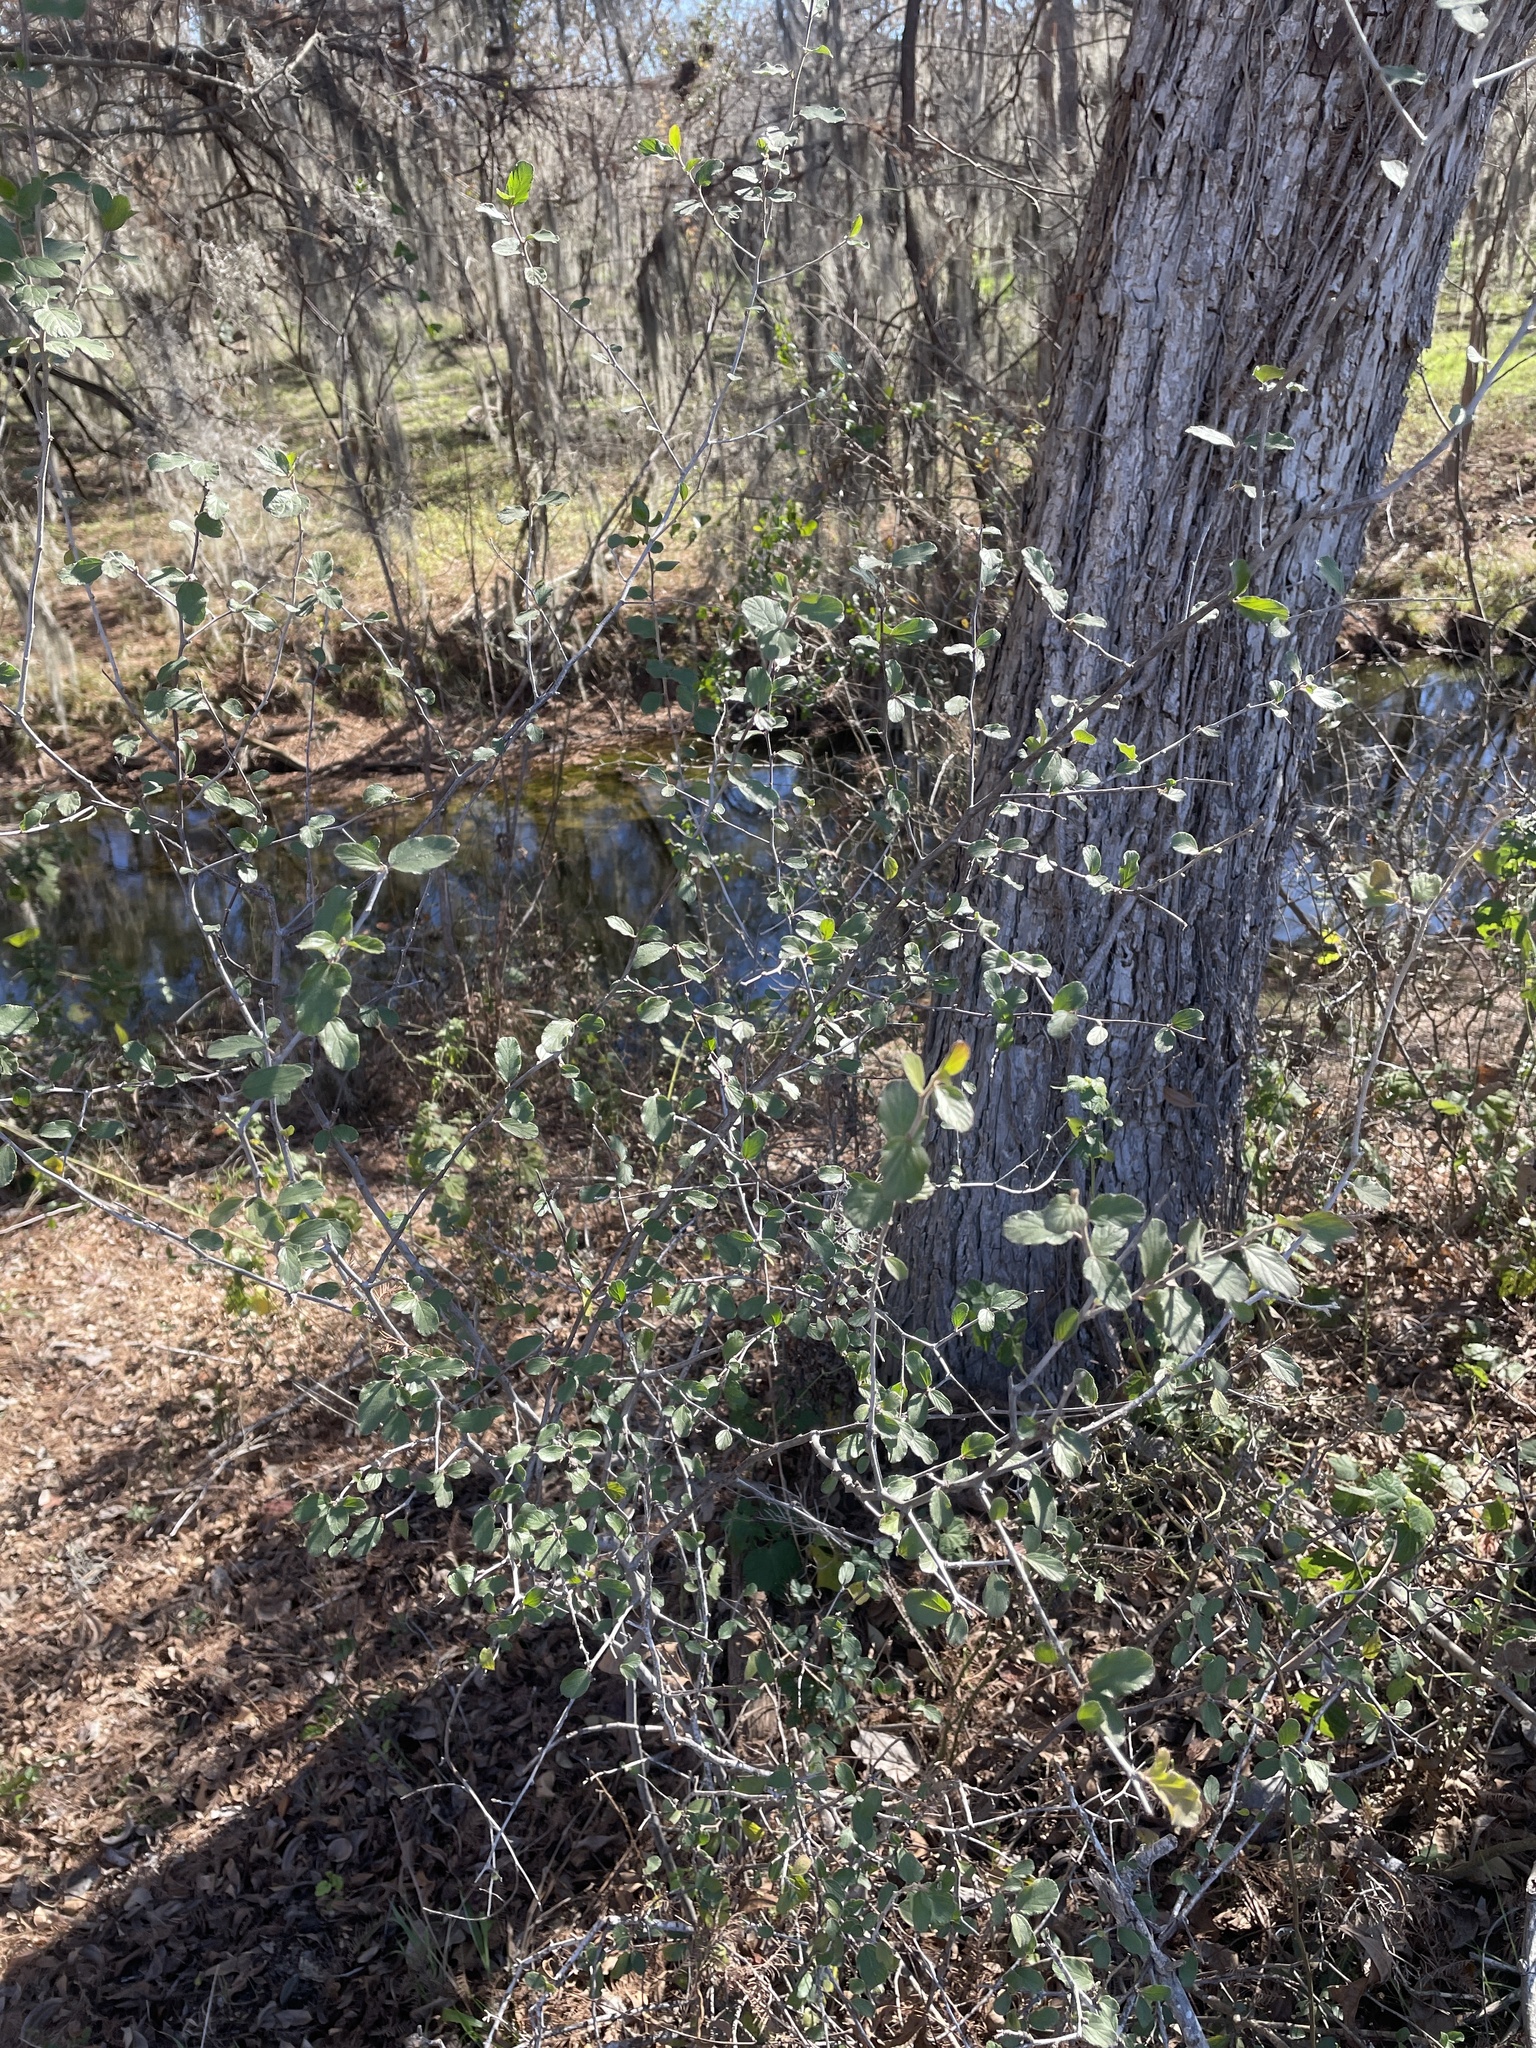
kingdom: Plantae
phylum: Tracheophyta
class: Magnoliopsida
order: Rosales
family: Rhamnaceae
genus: Colubrina
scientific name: Colubrina texensis
